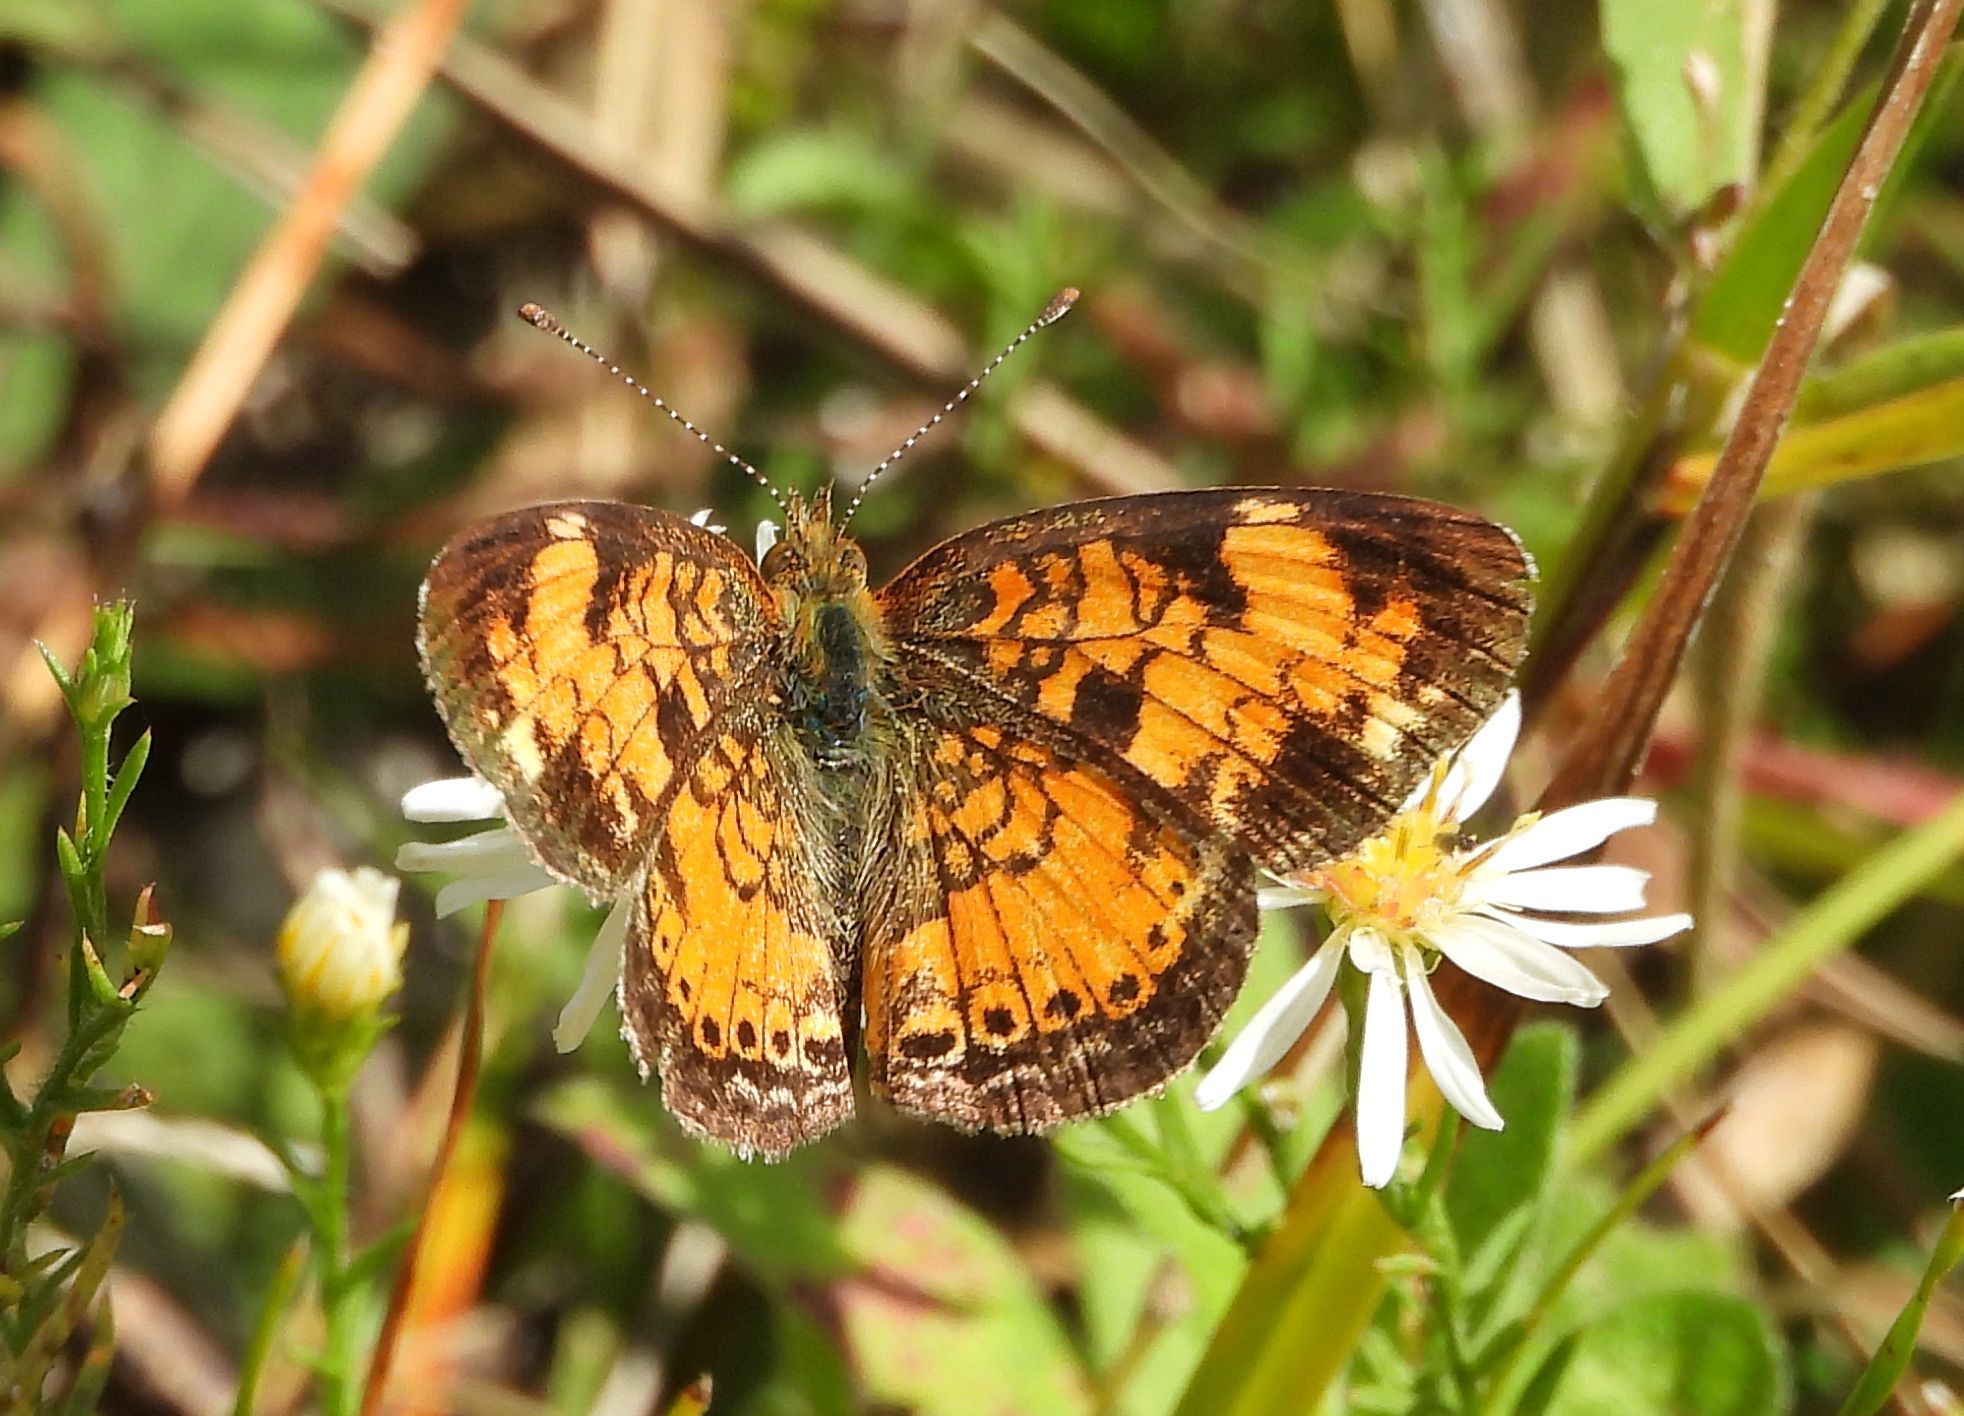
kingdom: Animalia
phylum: Arthropoda
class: Insecta
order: Lepidoptera
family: Nymphalidae
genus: Phyciodes
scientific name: Phyciodes tharos
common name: Pearl crescent
